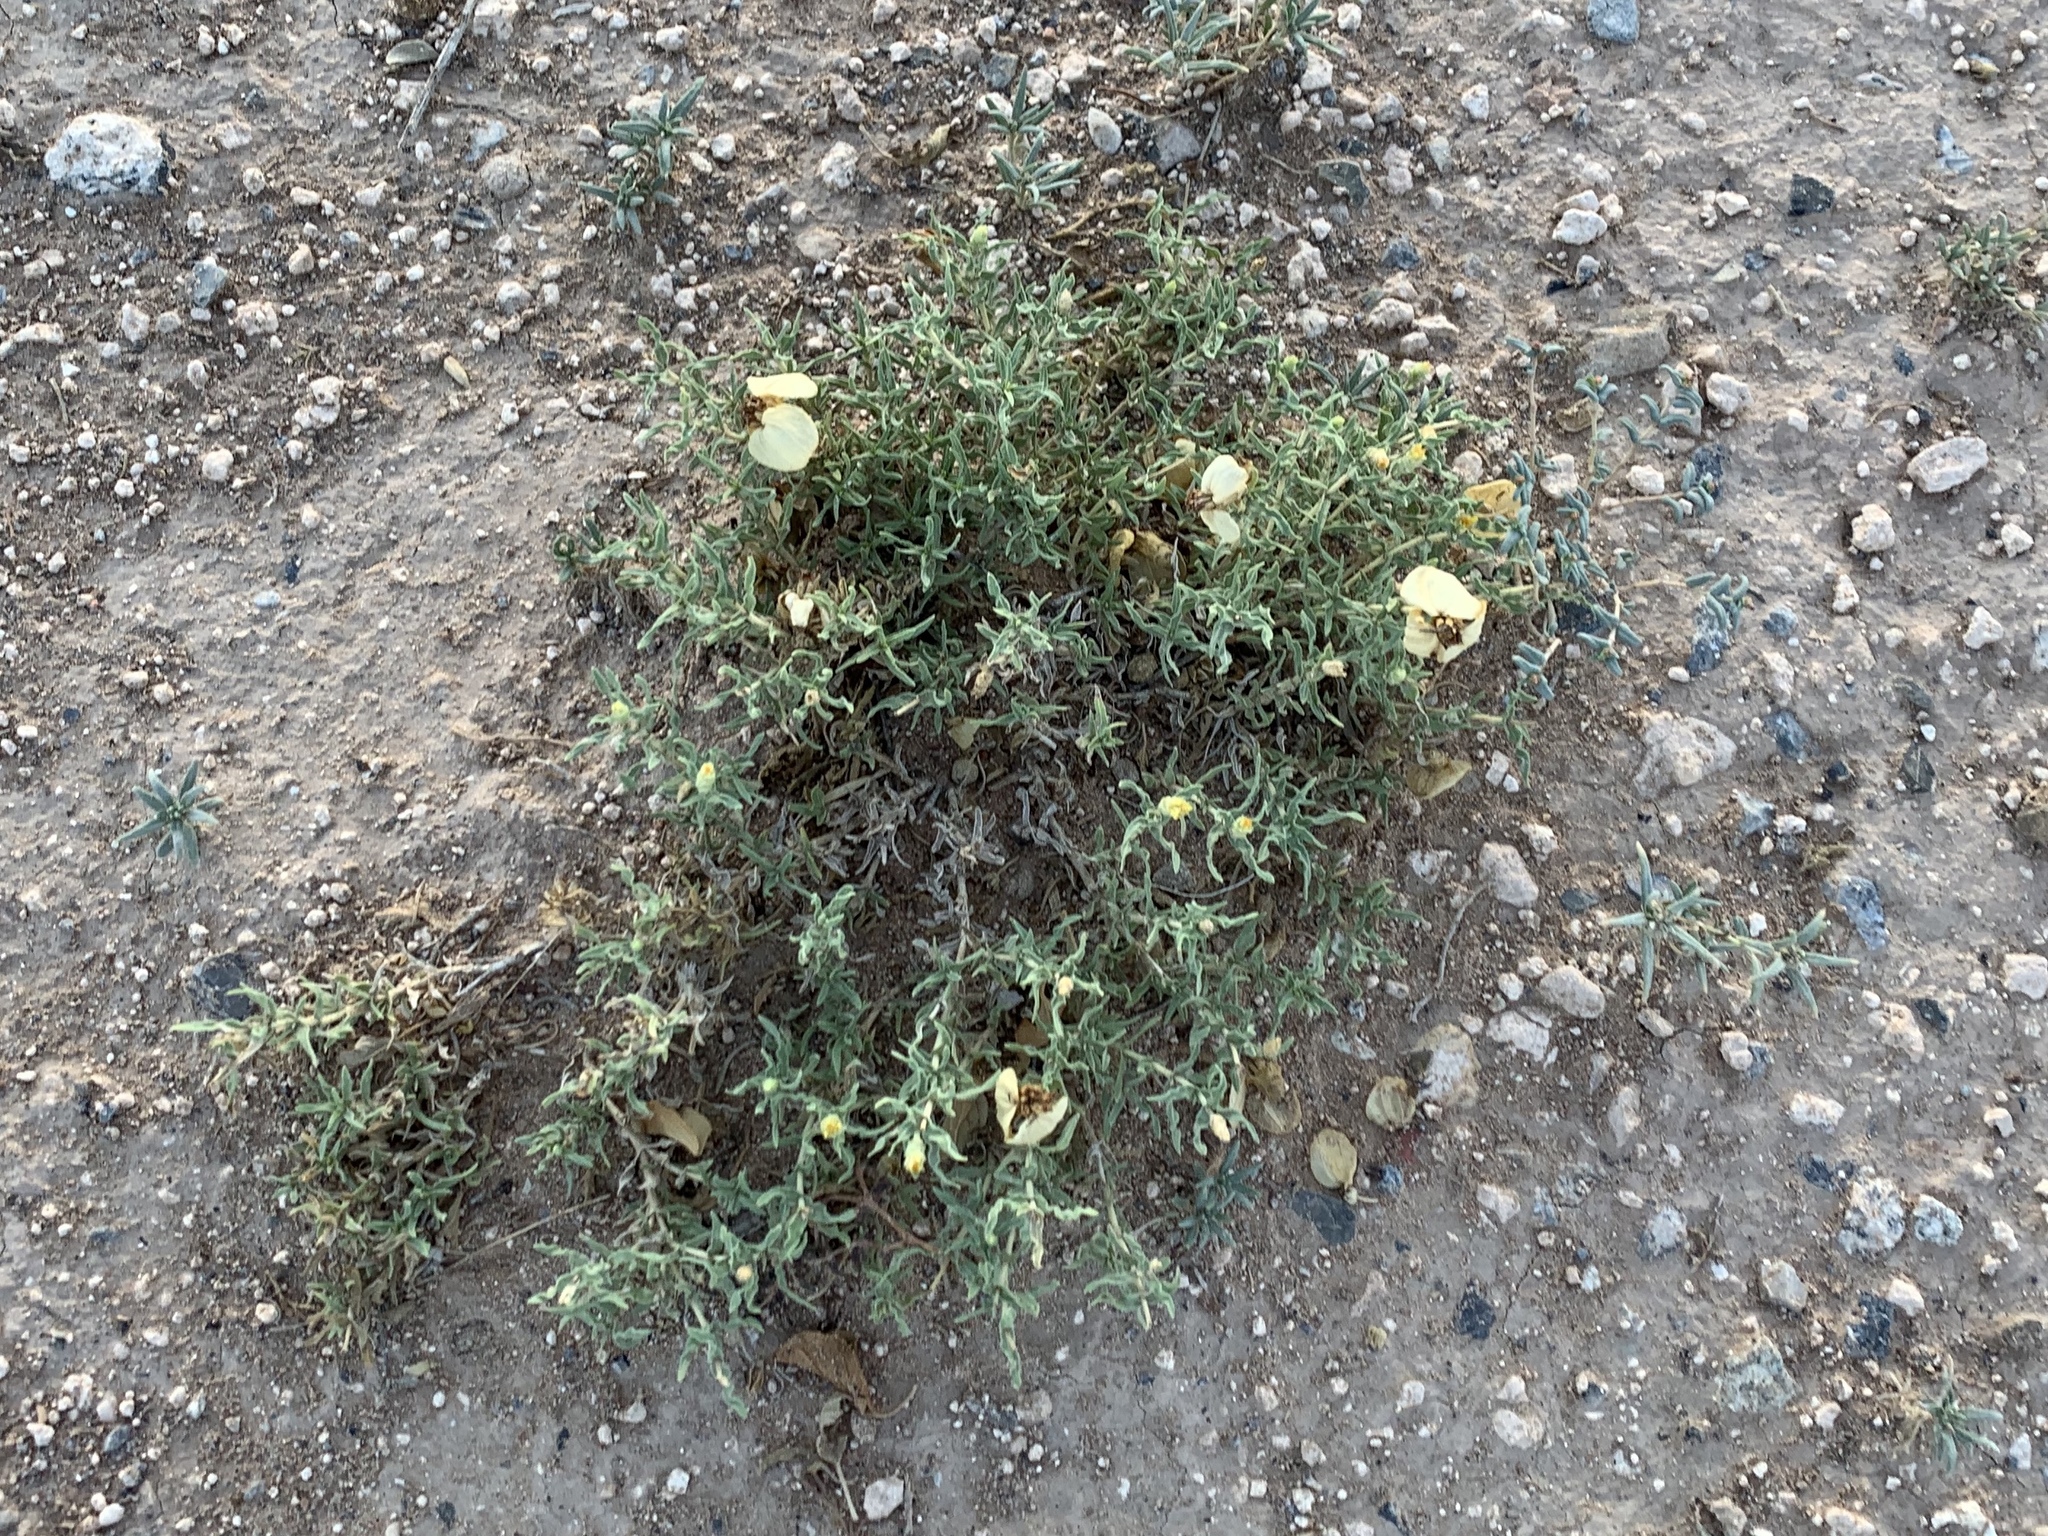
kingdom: Plantae
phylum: Tracheophyta
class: Magnoliopsida
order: Asterales
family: Asteraceae
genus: Zinnia
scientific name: Zinnia acerosa
